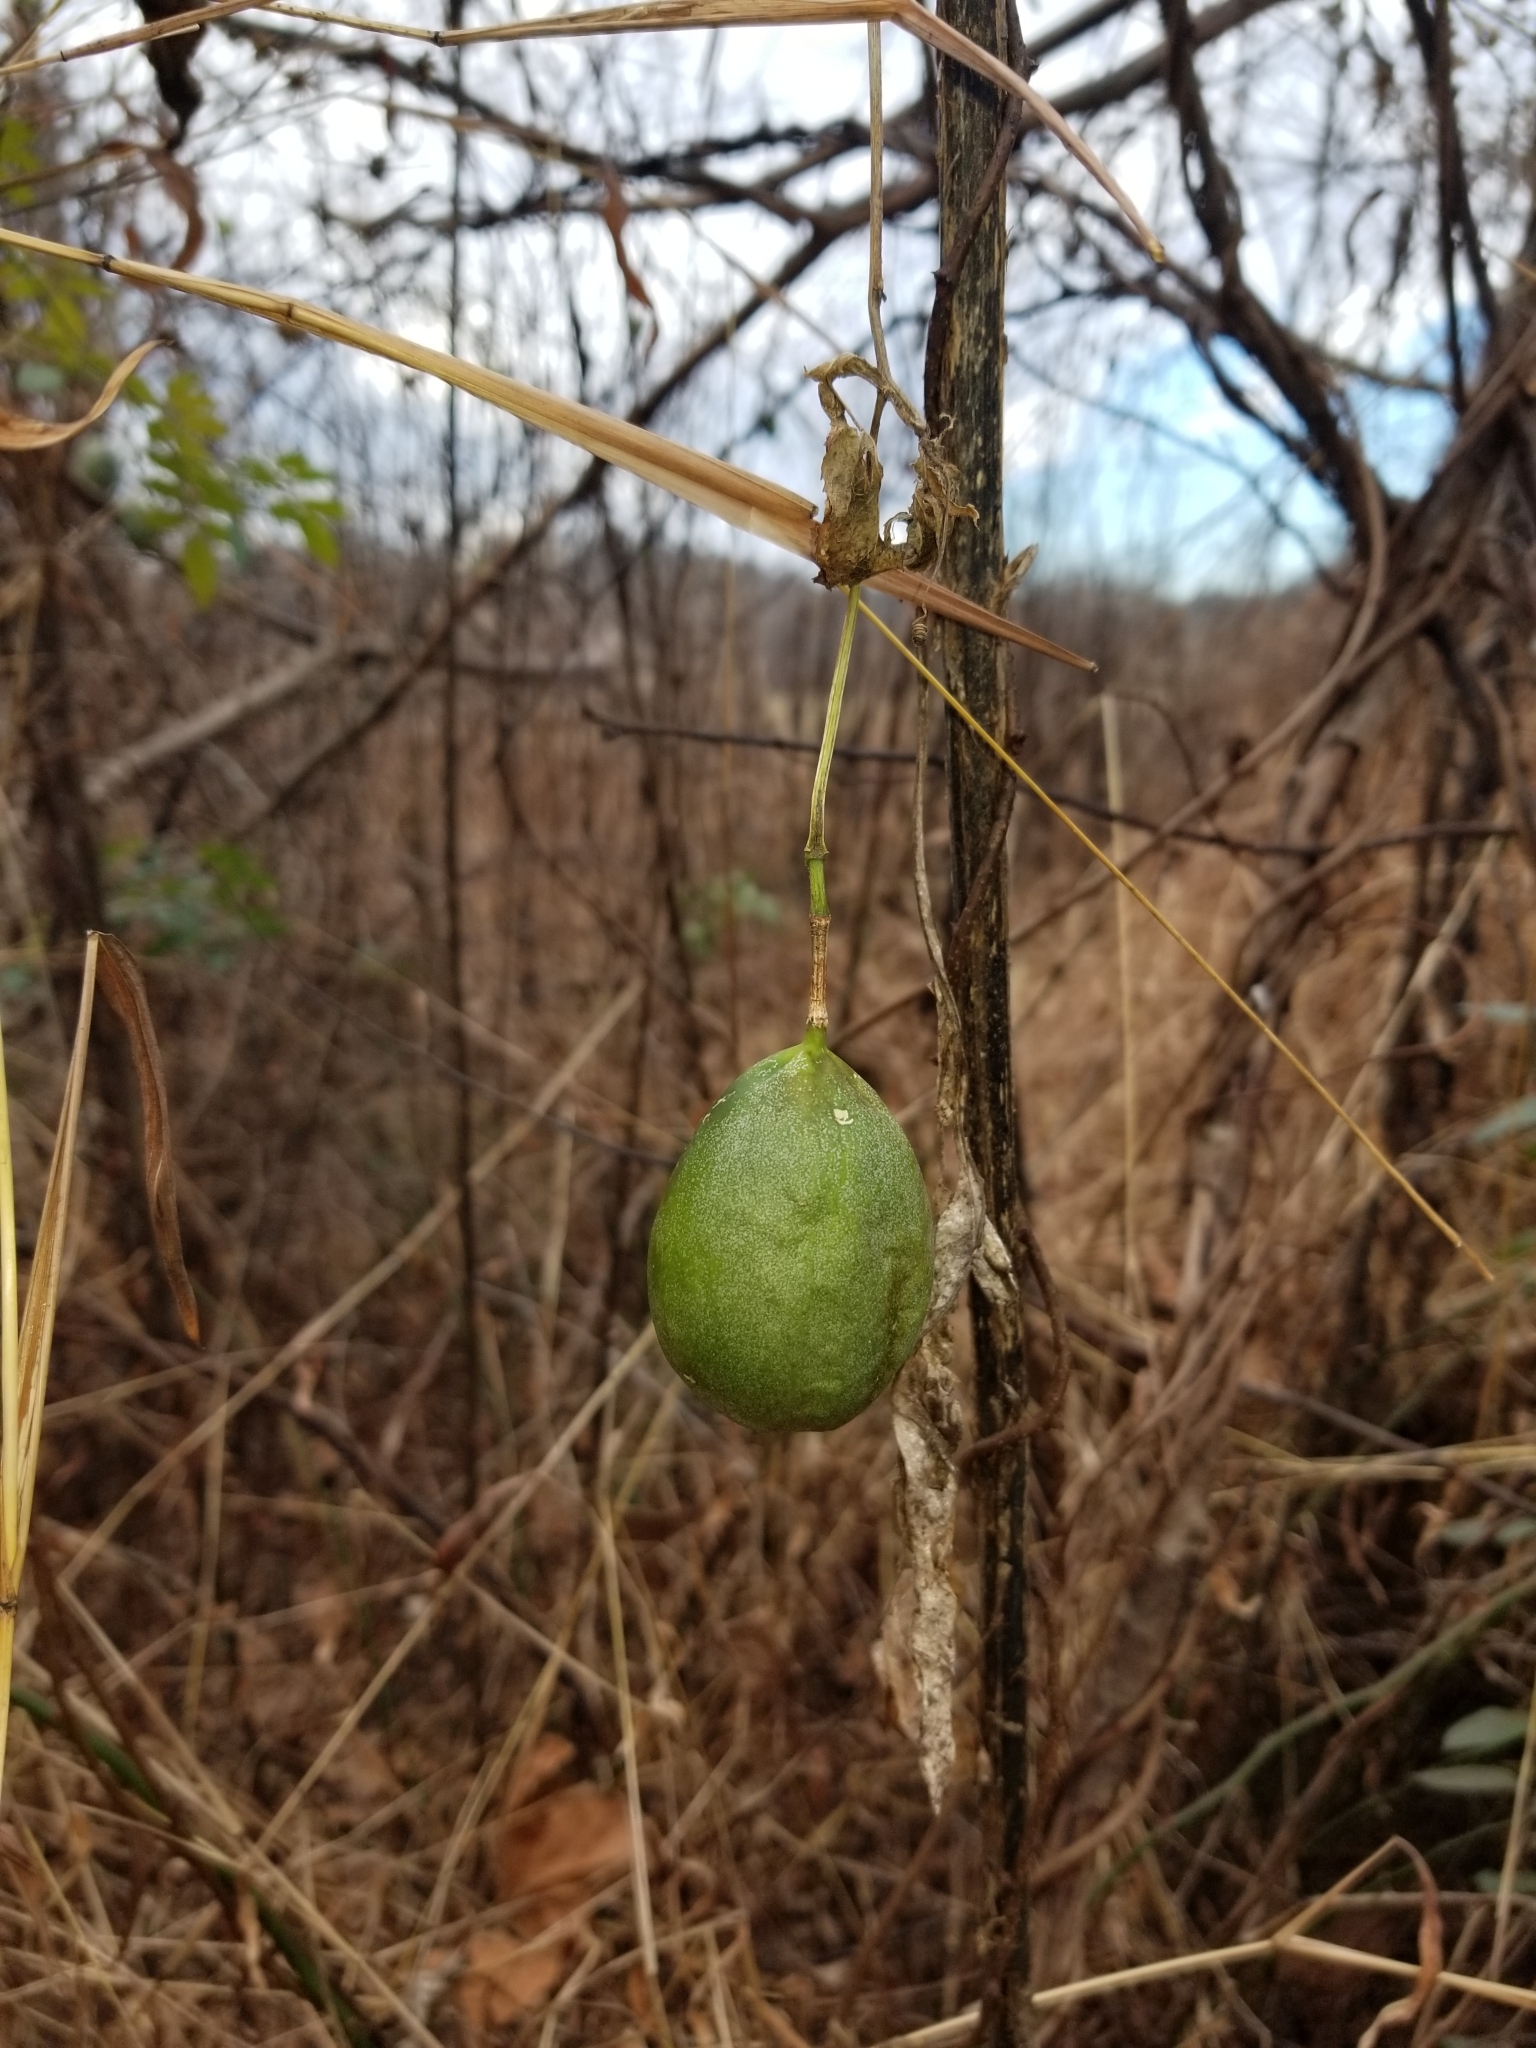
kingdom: Plantae
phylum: Tracheophyta
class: Magnoliopsida
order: Malpighiales
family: Passifloraceae
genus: Passiflora
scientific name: Passiflora incarnata
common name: Apricot-vine
